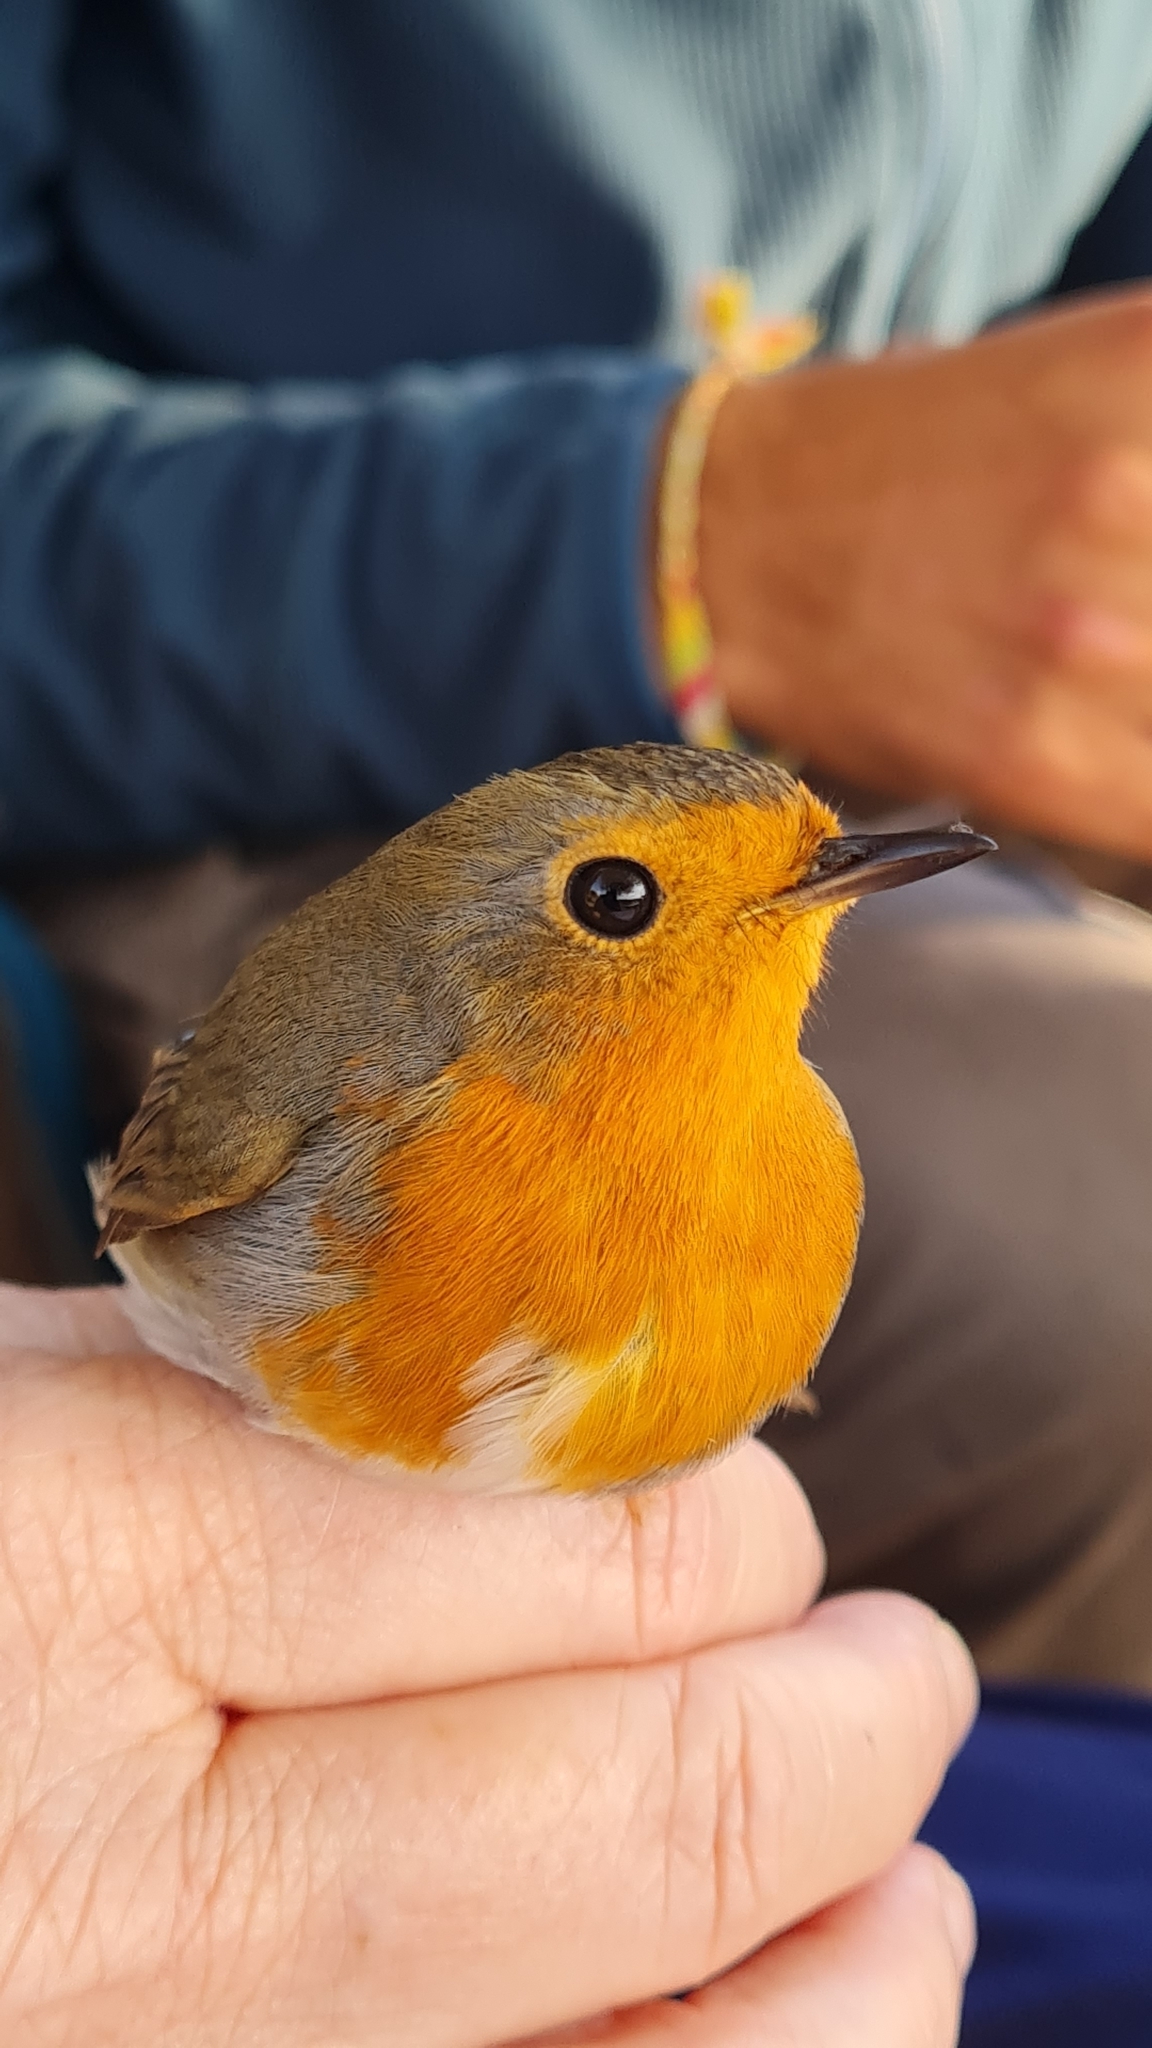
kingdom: Animalia
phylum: Chordata
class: Aves
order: Passeriformes
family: Muscicapidae
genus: Erithacus
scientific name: Erithacus rubecula
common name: European robin
